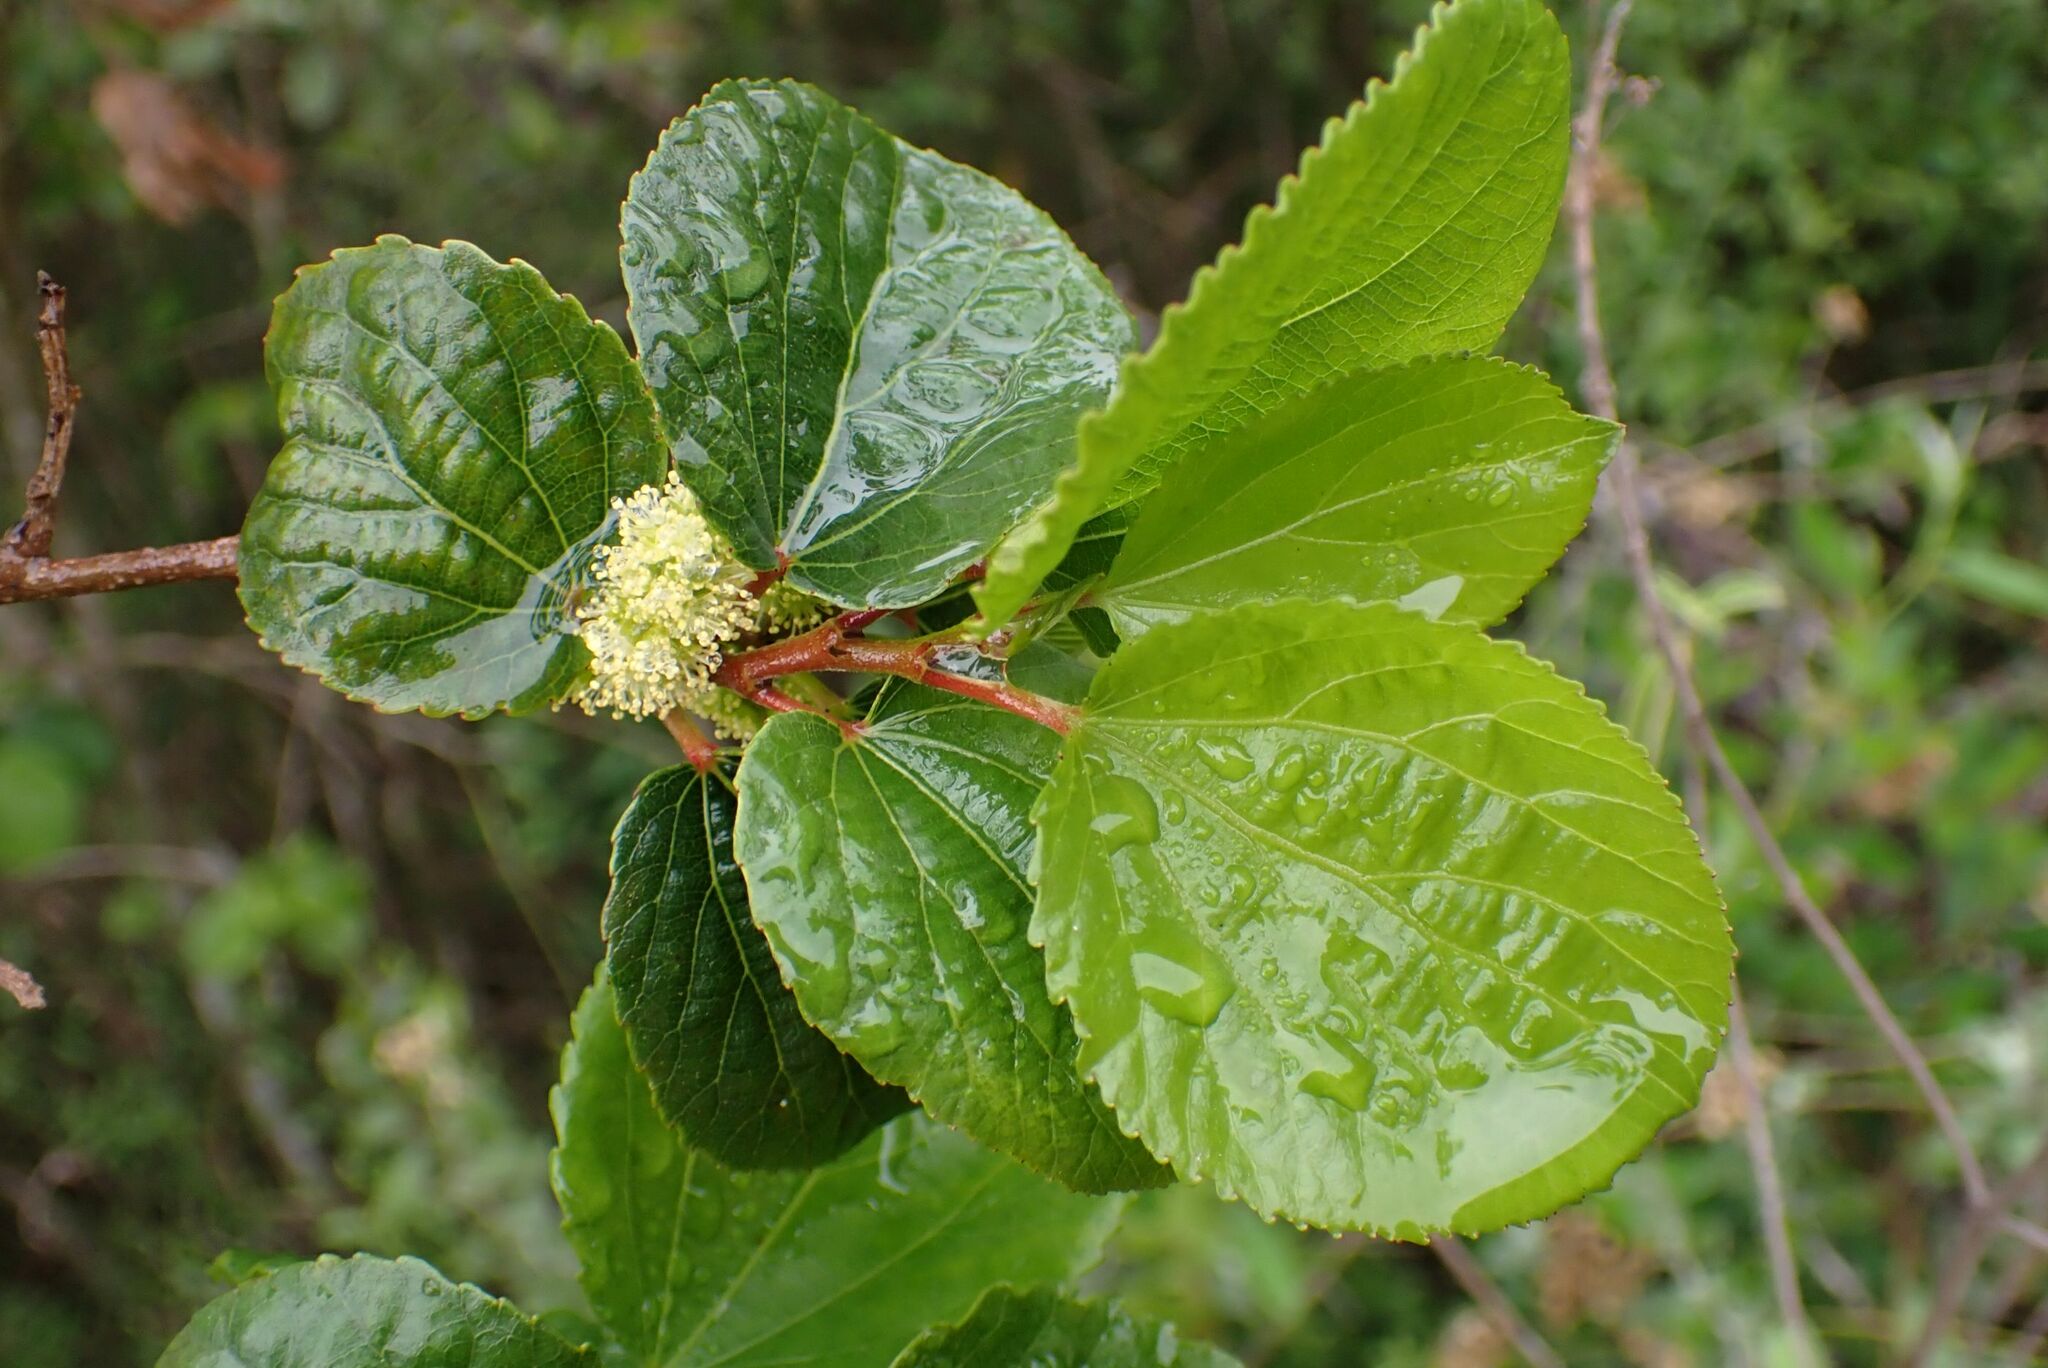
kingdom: Plantae
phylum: Tracheophyta
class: Magnoliopsida
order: Malpighiales
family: Salicaceae
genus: Trimeria
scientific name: Trimeria grandifolia
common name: Wild mulberry
